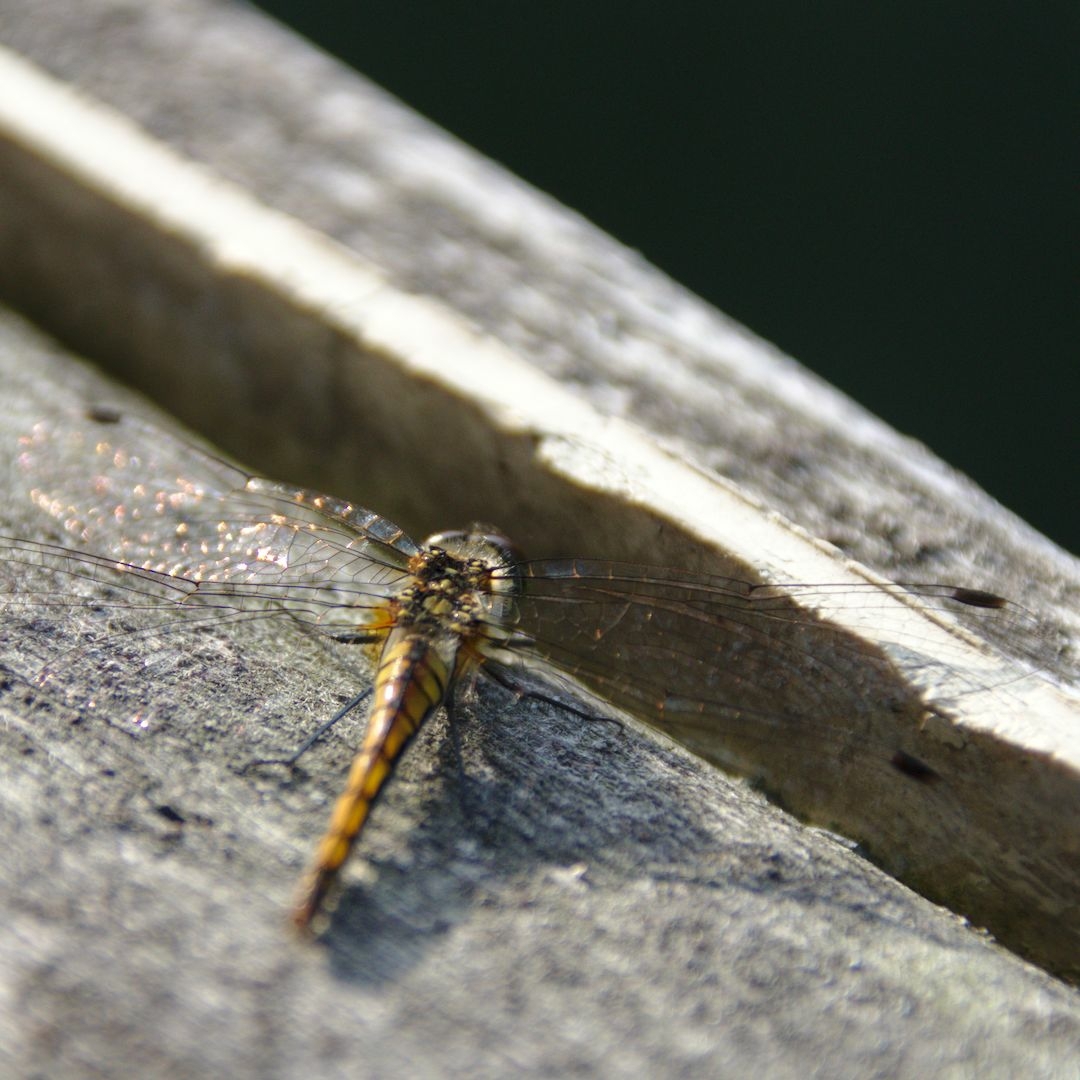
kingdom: Animalia
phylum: Arthropoda
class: Insecta
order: Odonata
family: Libellulidae
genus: Sympetrum
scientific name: Sympetrum danae
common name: Black darter
